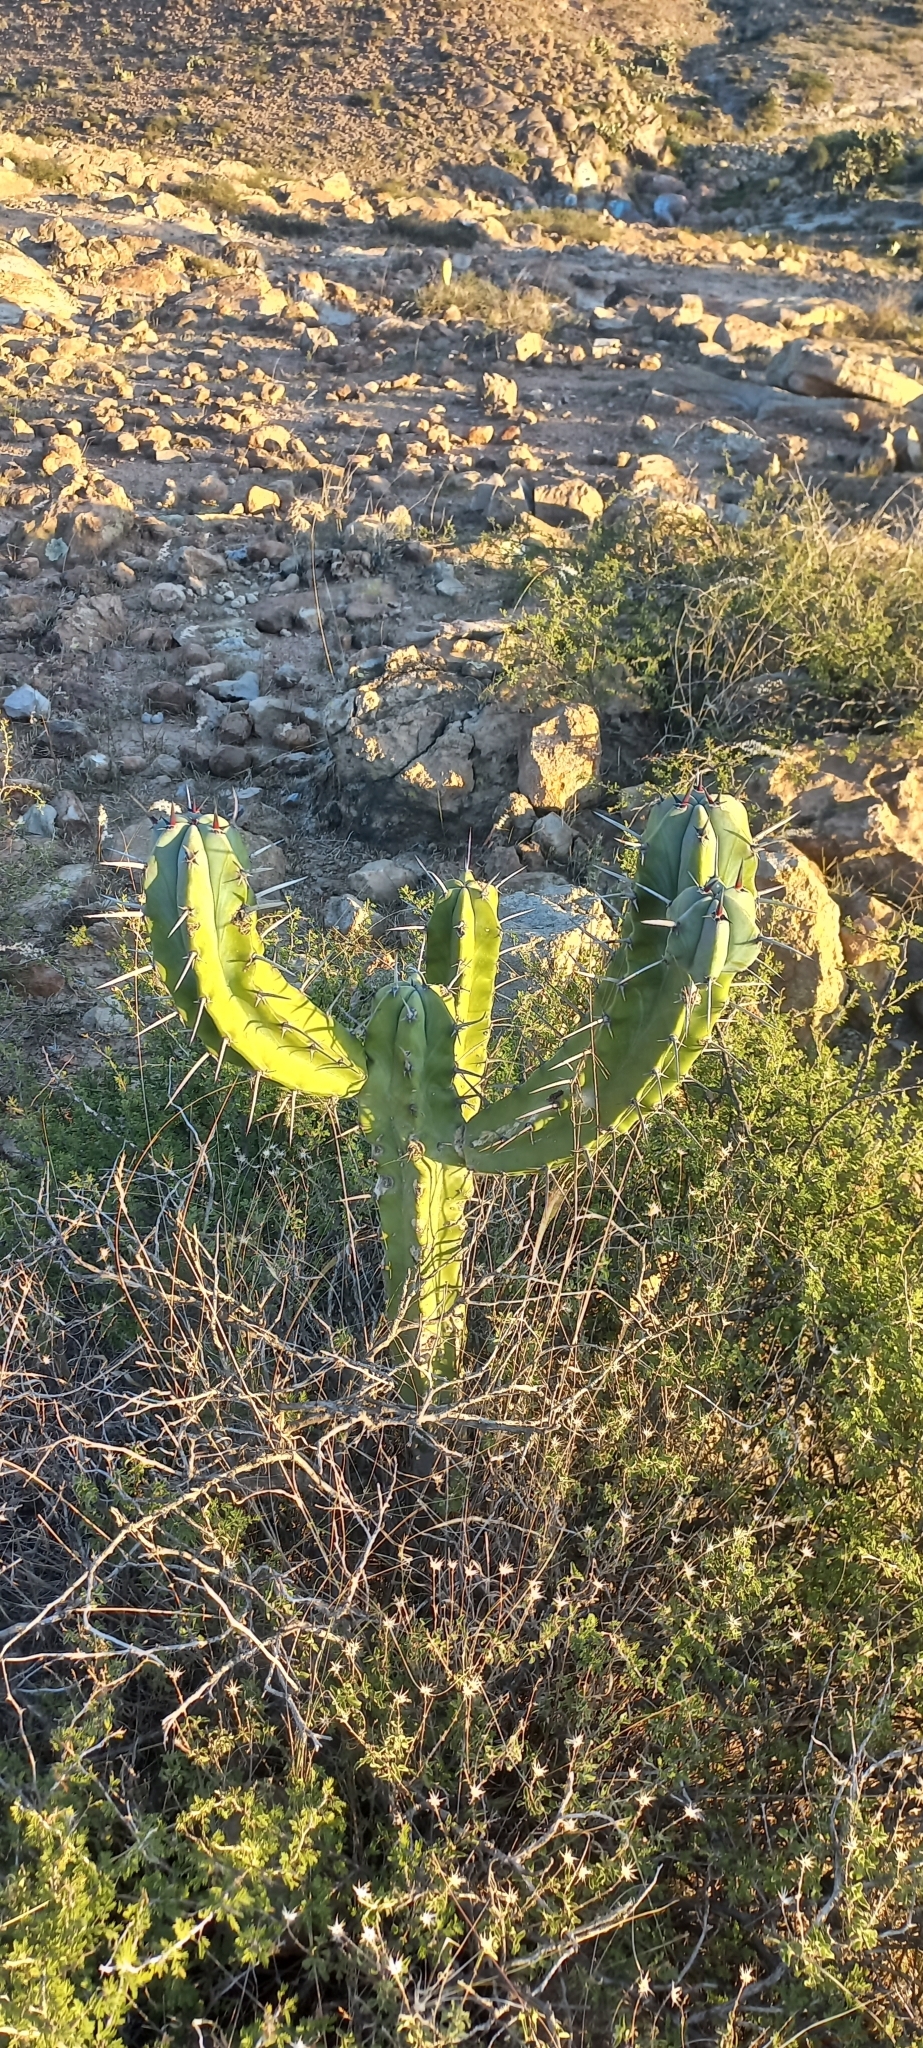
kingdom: Plantae
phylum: Tracheophyta
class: Magnoliopsida
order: Caryophyllales
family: Cactaceae
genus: Myrtillocactus
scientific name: Myrtillocactus geometrizans
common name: Bilberry cactus
